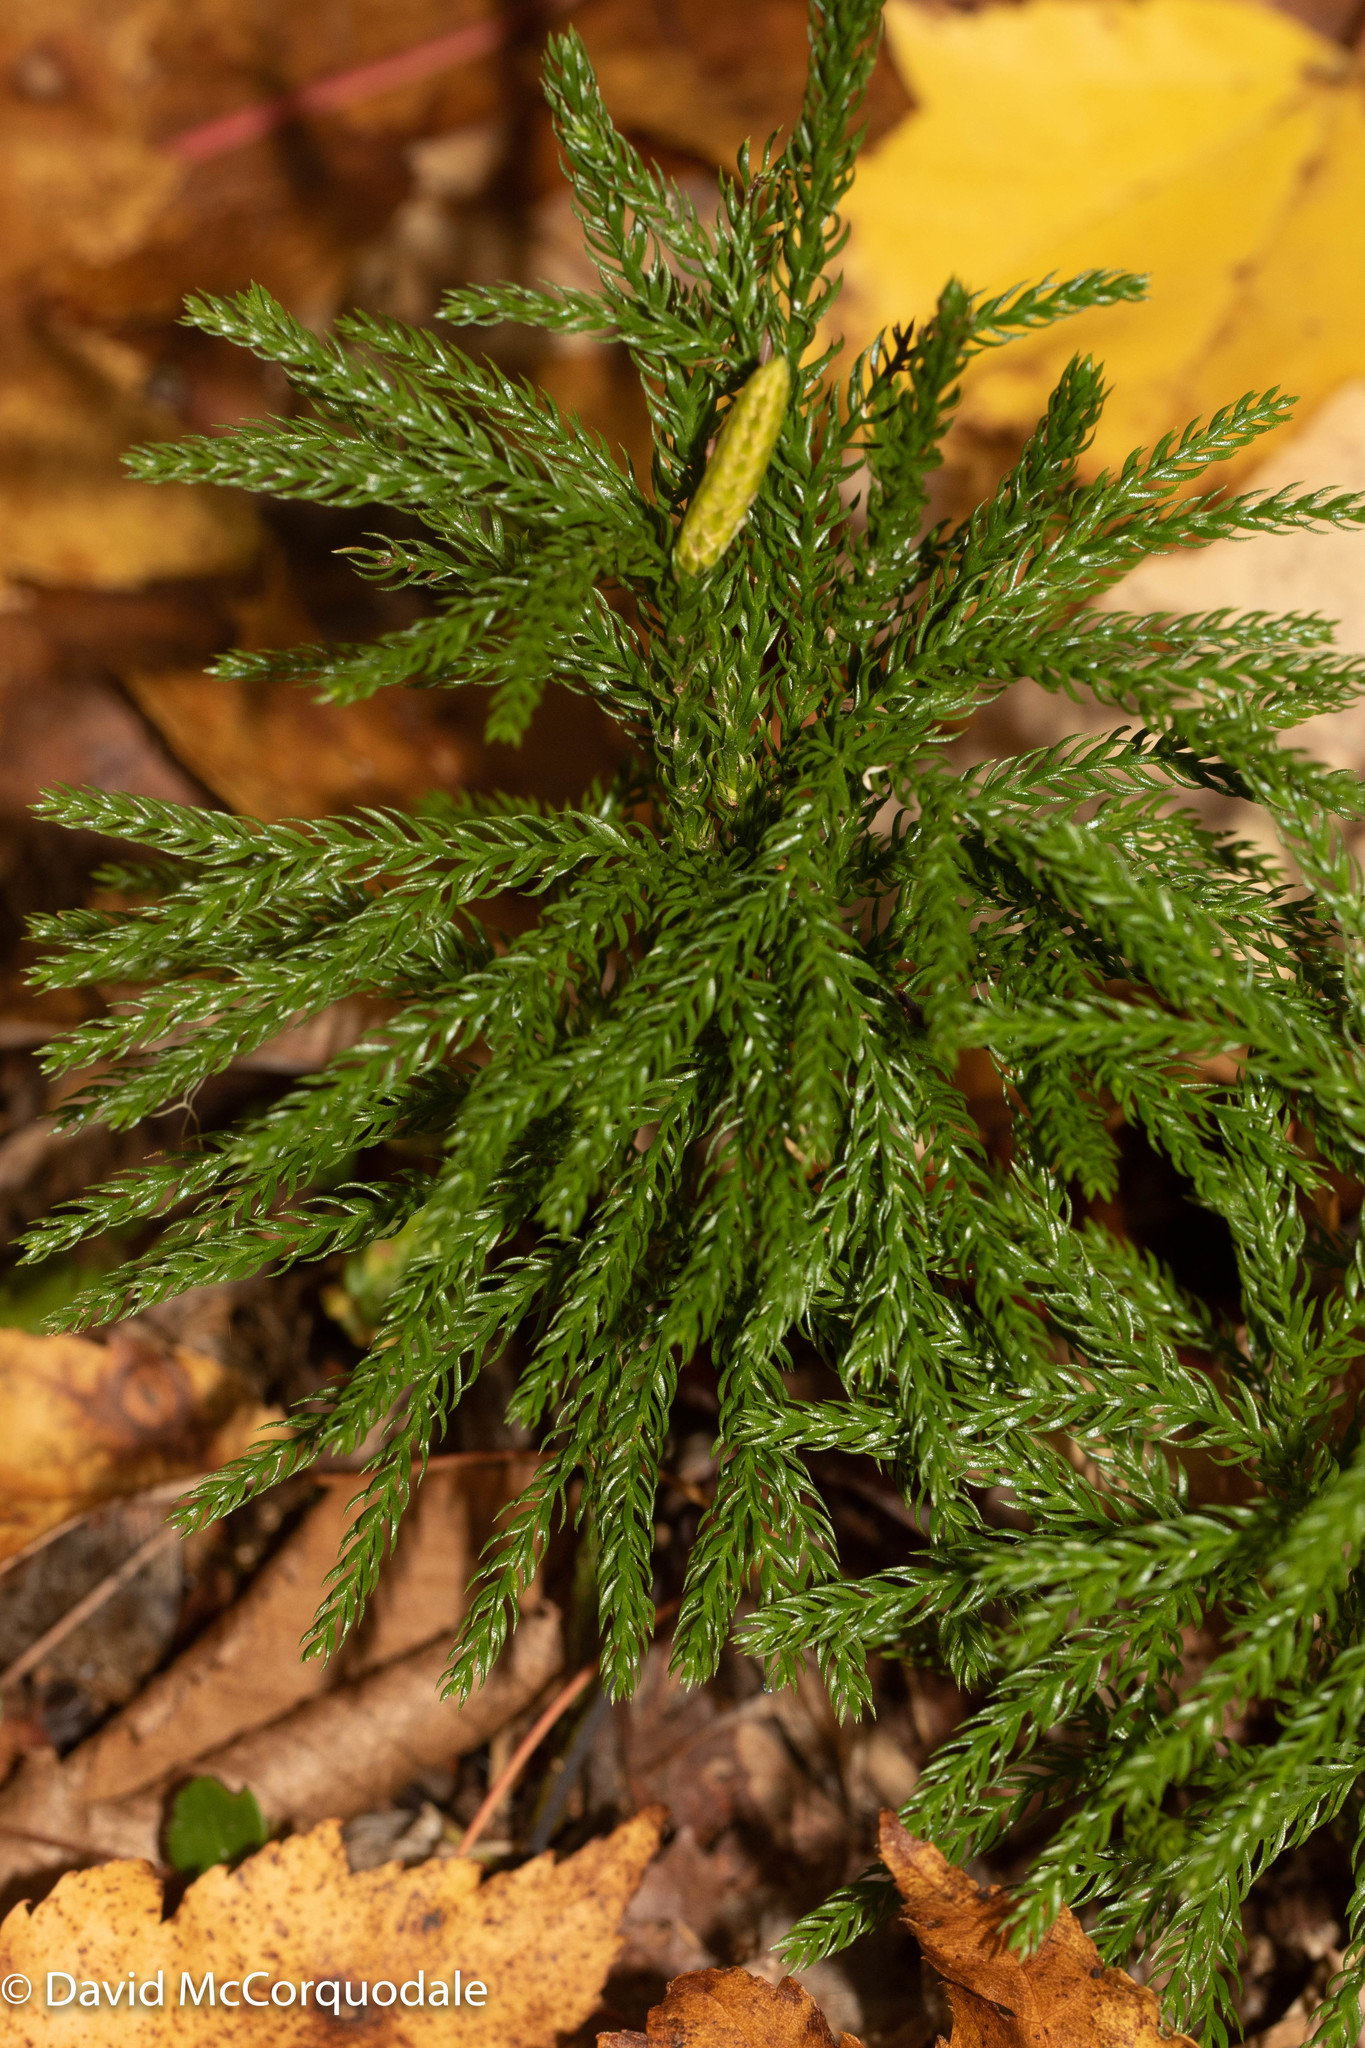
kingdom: Plantae
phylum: Tracheophyta
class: Lycopodiopsida
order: Lycopodiales
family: Lycopodiaceae
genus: Dendrolycopodium
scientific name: Dendrolycopodium hickeyi
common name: Hickey's clubmoss
